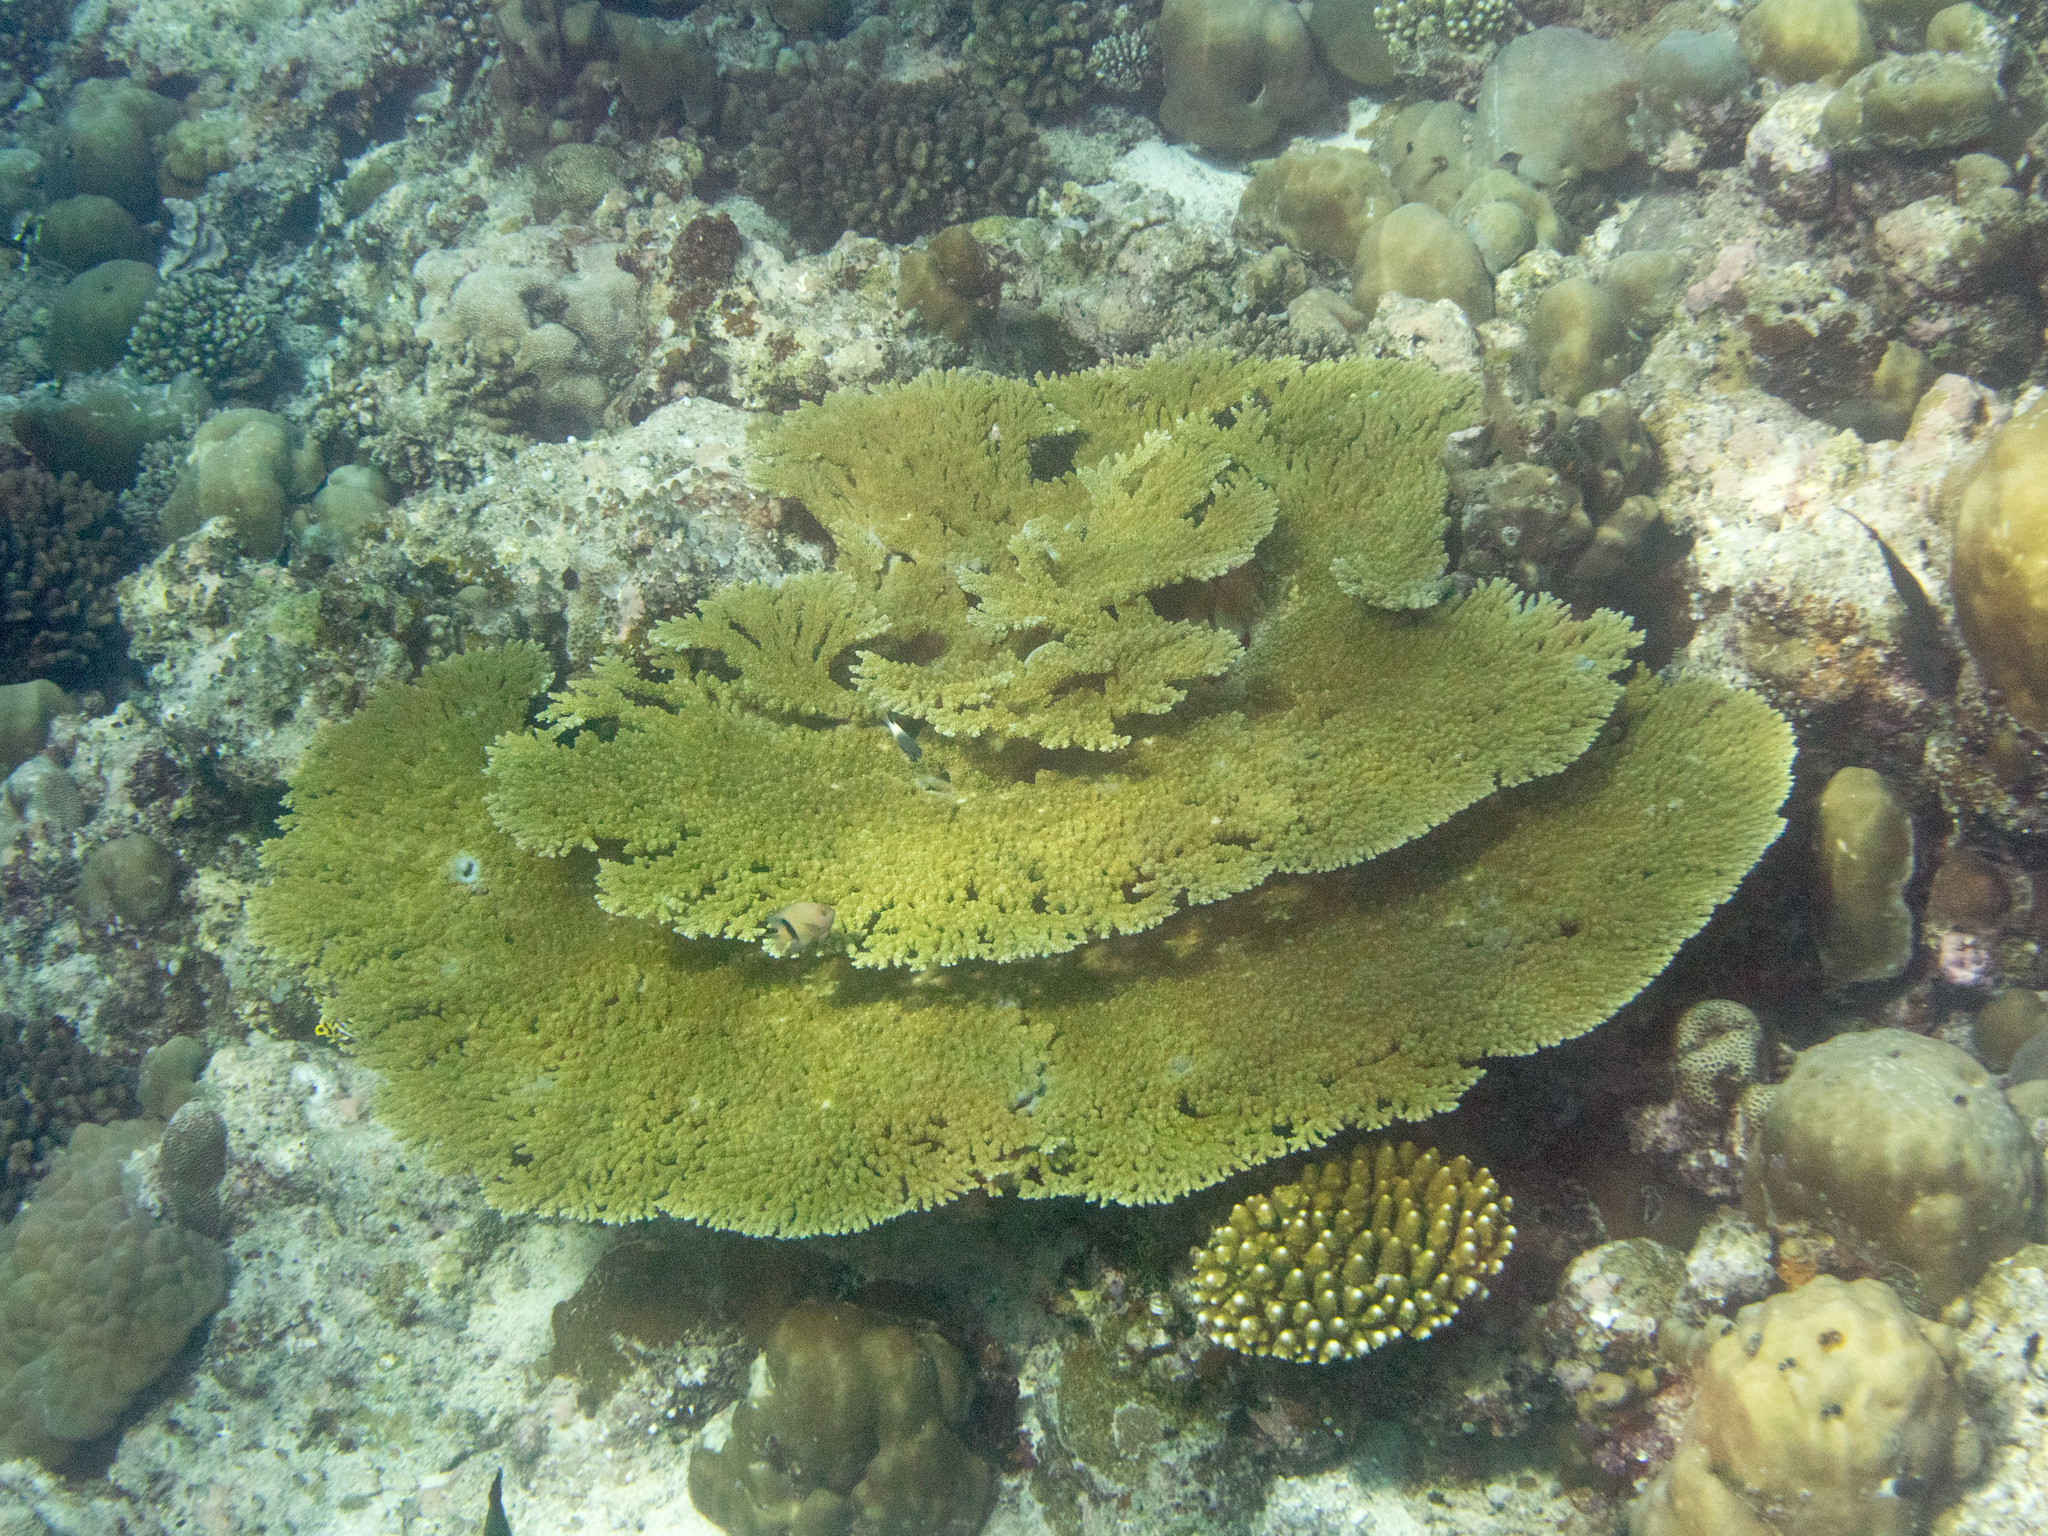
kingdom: Animalia
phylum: Cnidaria
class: Anthozoa
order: Scleractinia
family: Acroporidae
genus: Acropora
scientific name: Acropora clathrata
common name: Plate coral
